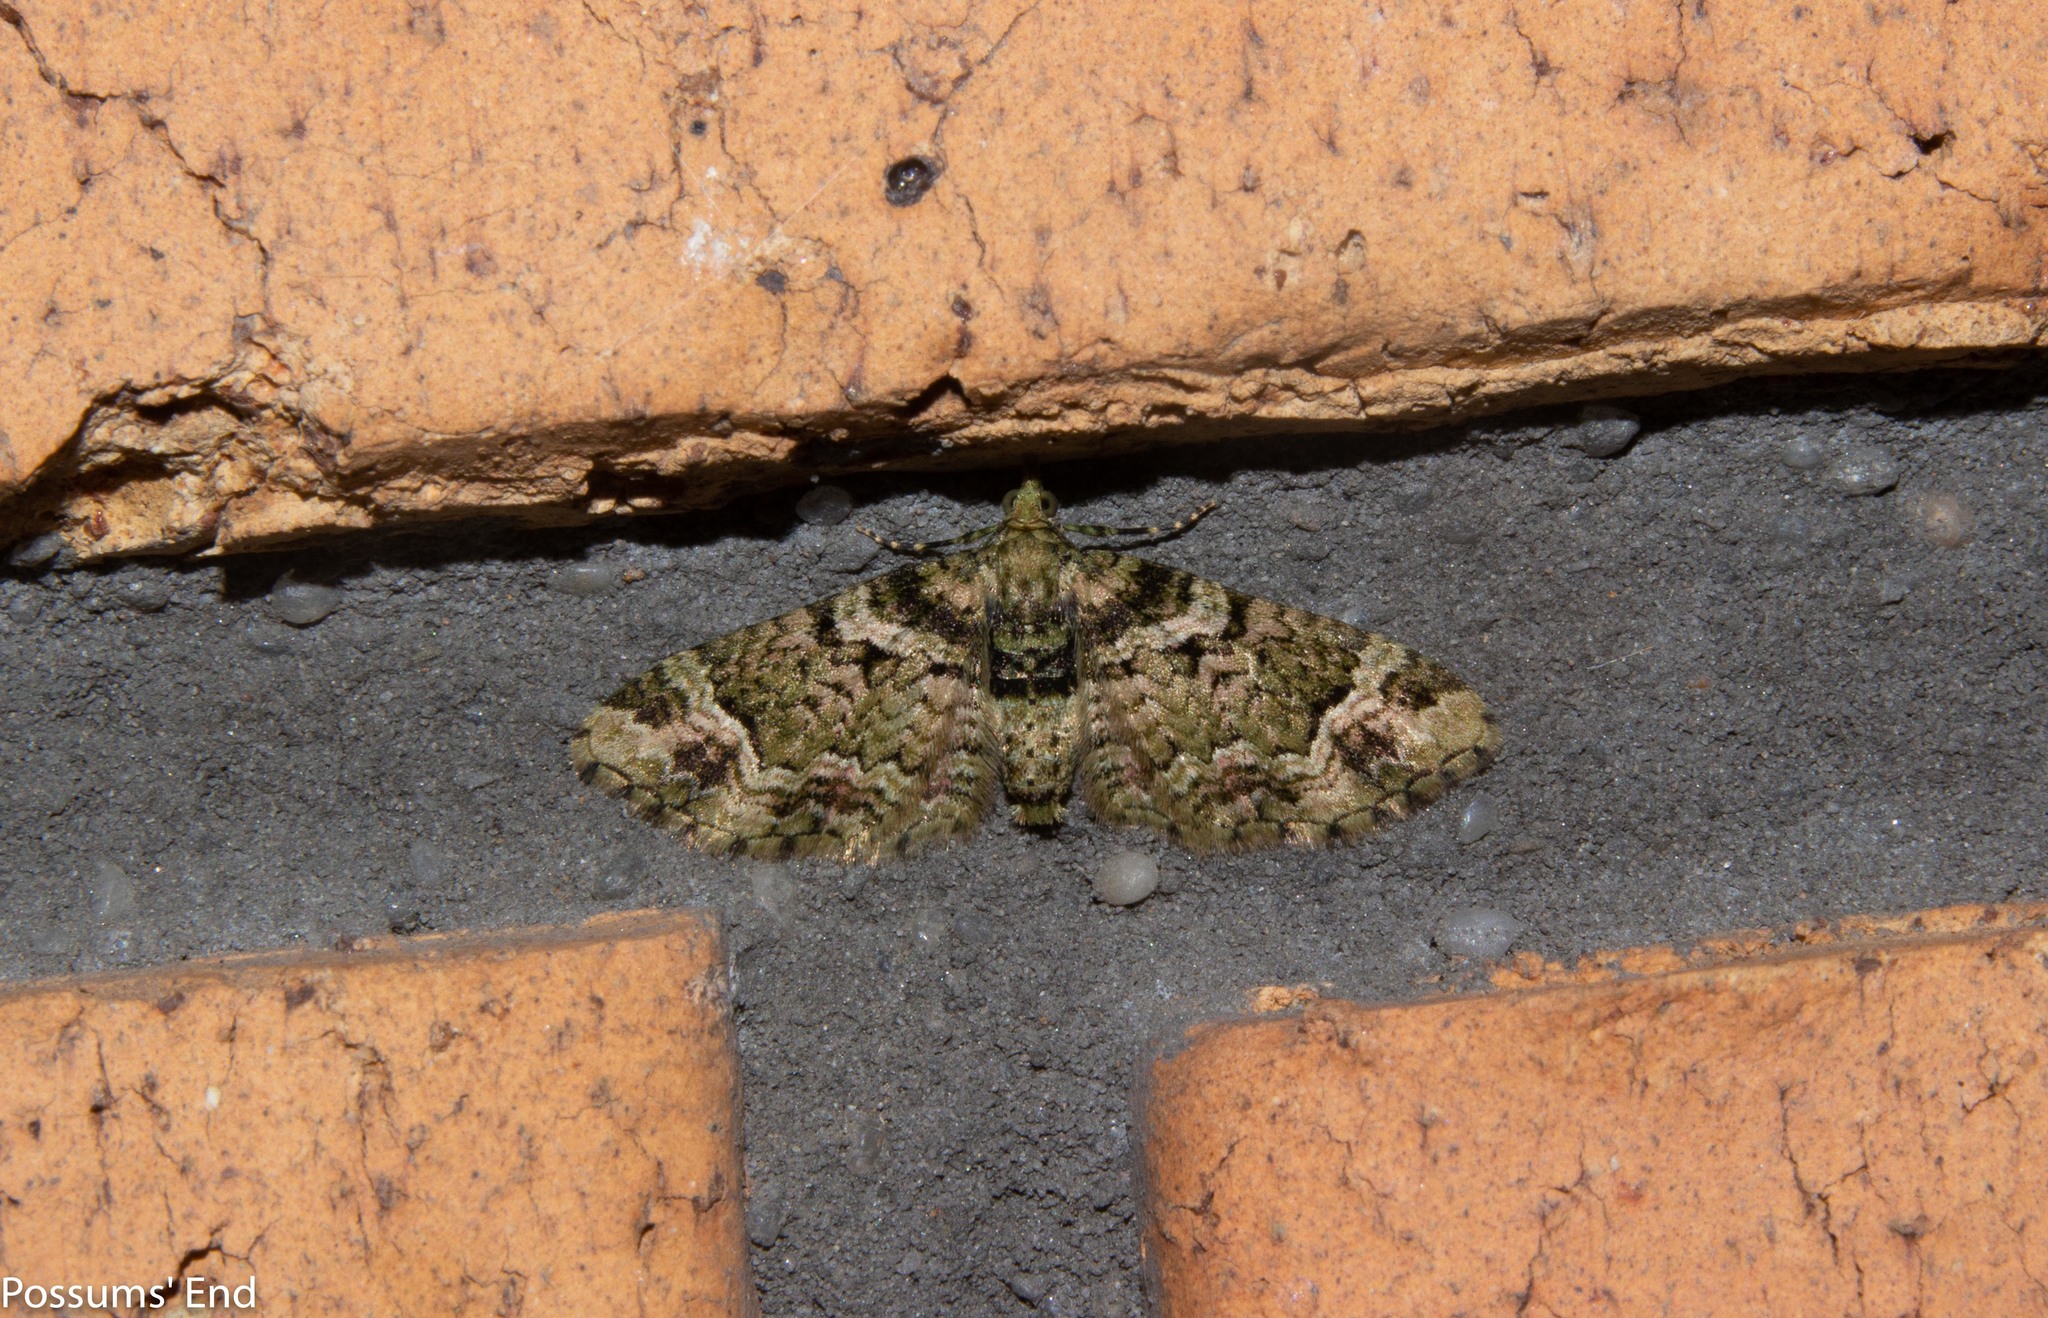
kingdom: Animalia
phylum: Arthropoda
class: Insecta
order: Lepidoptera
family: Geometridae
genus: Pasiphila
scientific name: Pasiphila urticae
